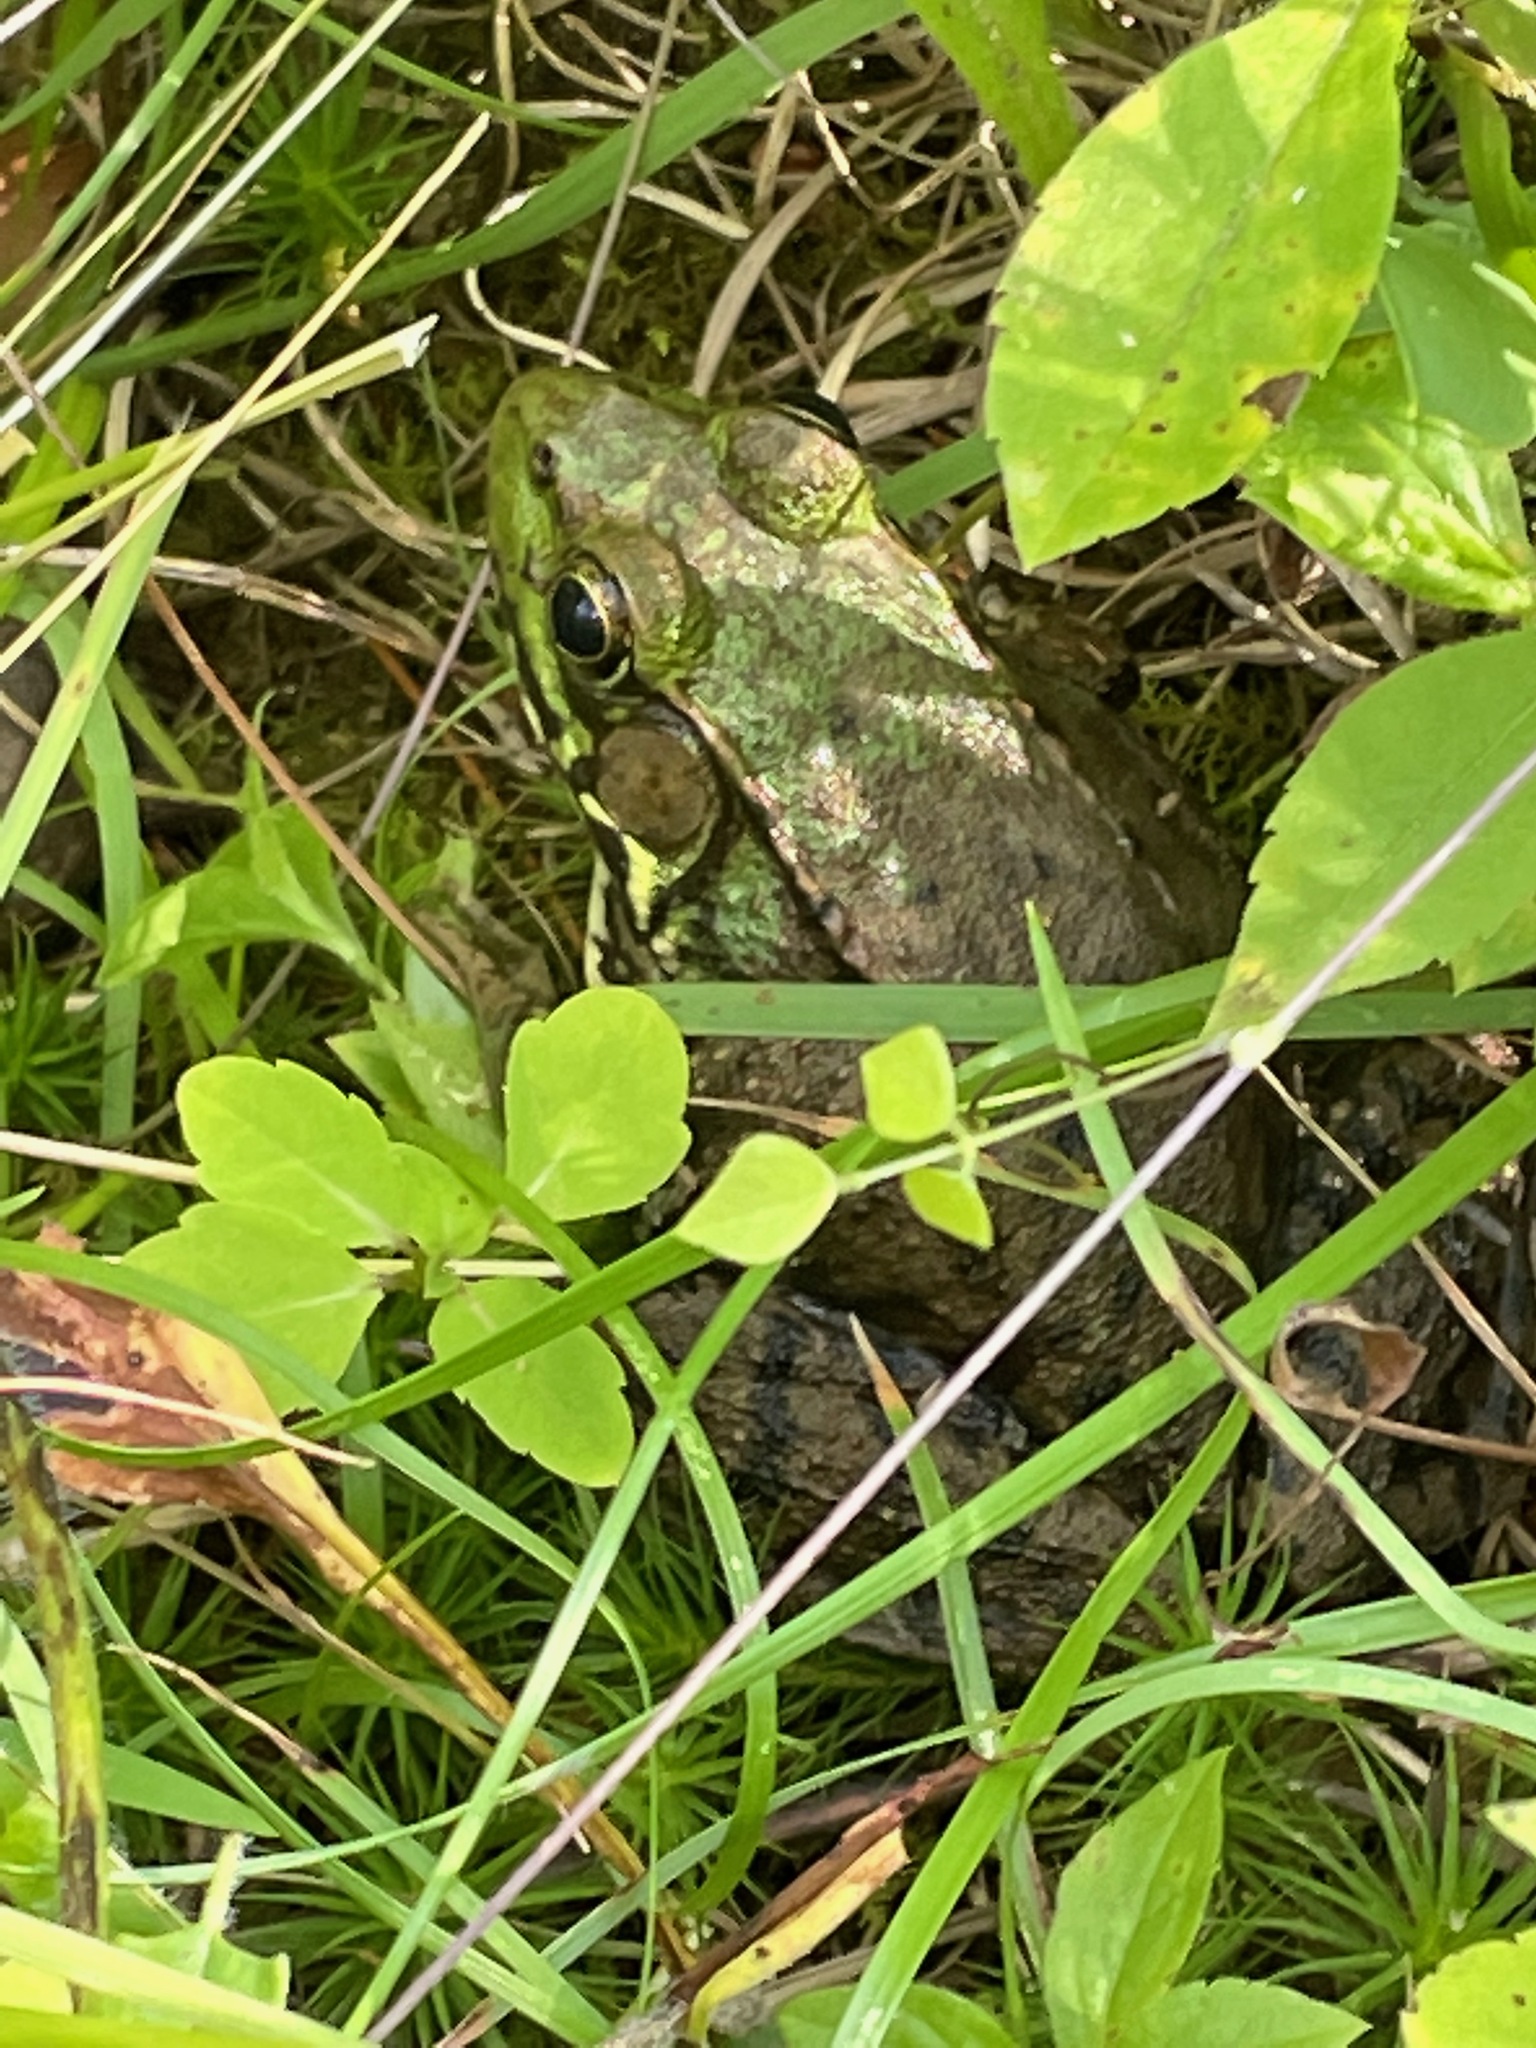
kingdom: Animalia
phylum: Chordata
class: Amphibia
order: Anura
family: Ranidae
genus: Lithobates
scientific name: Lithobates clamitans
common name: Green frog
